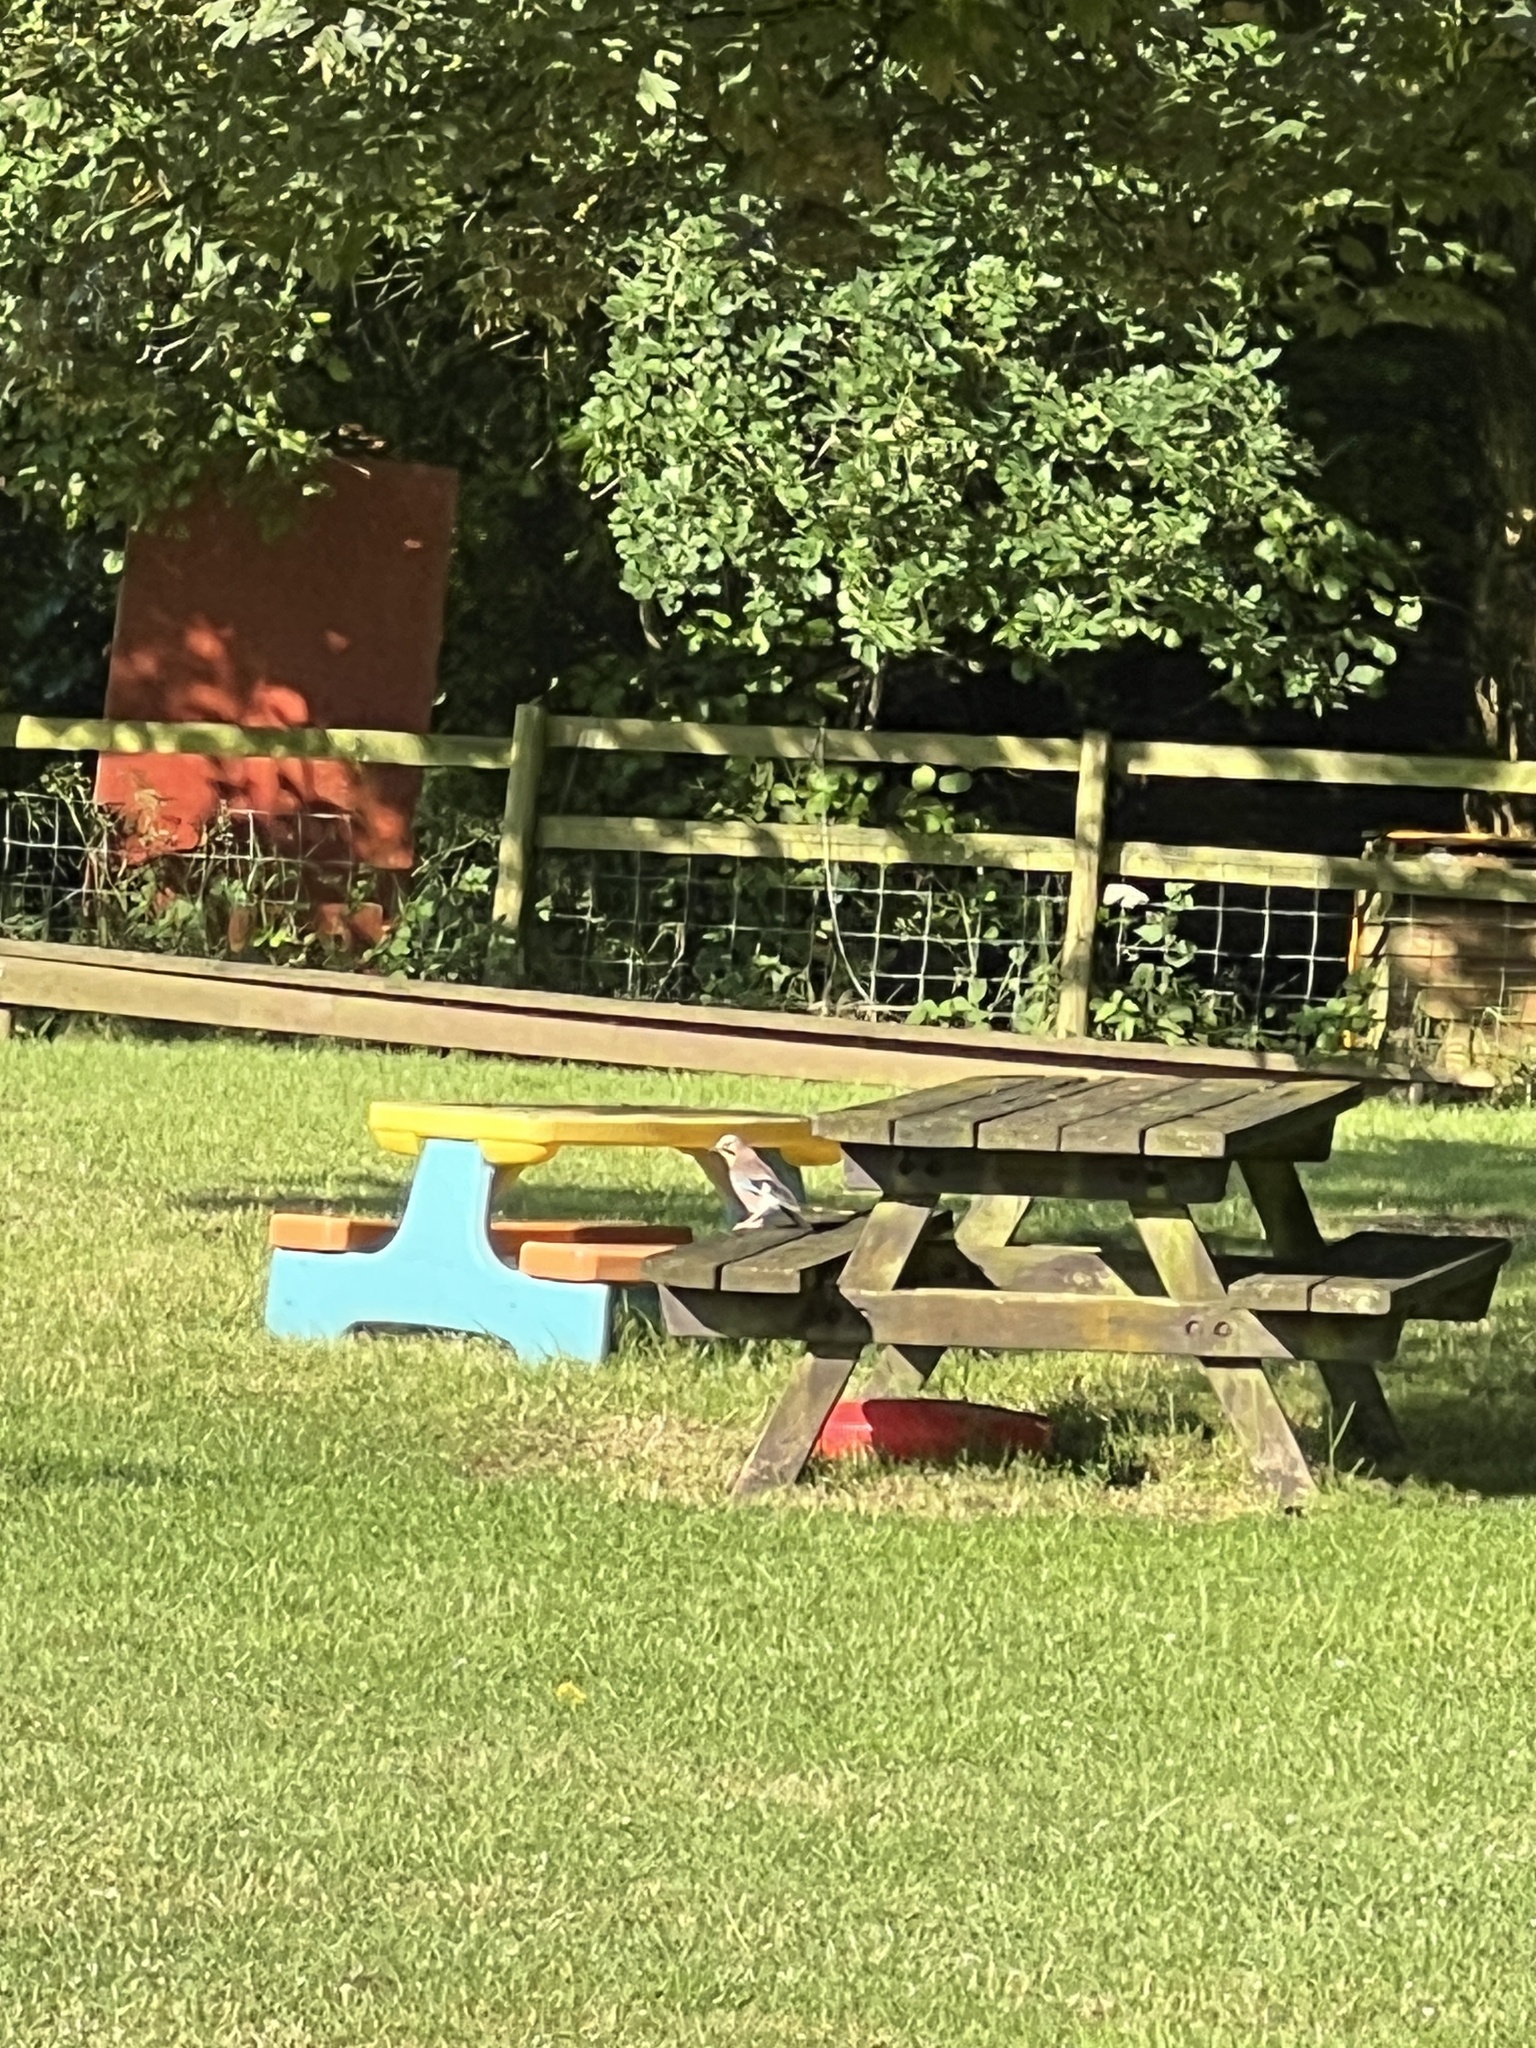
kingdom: Animalia
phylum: Chordata
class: Aves
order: Passeriformes
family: Corvidae
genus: Garrulus
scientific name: Garrulus glandarius
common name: Eurasian jay
